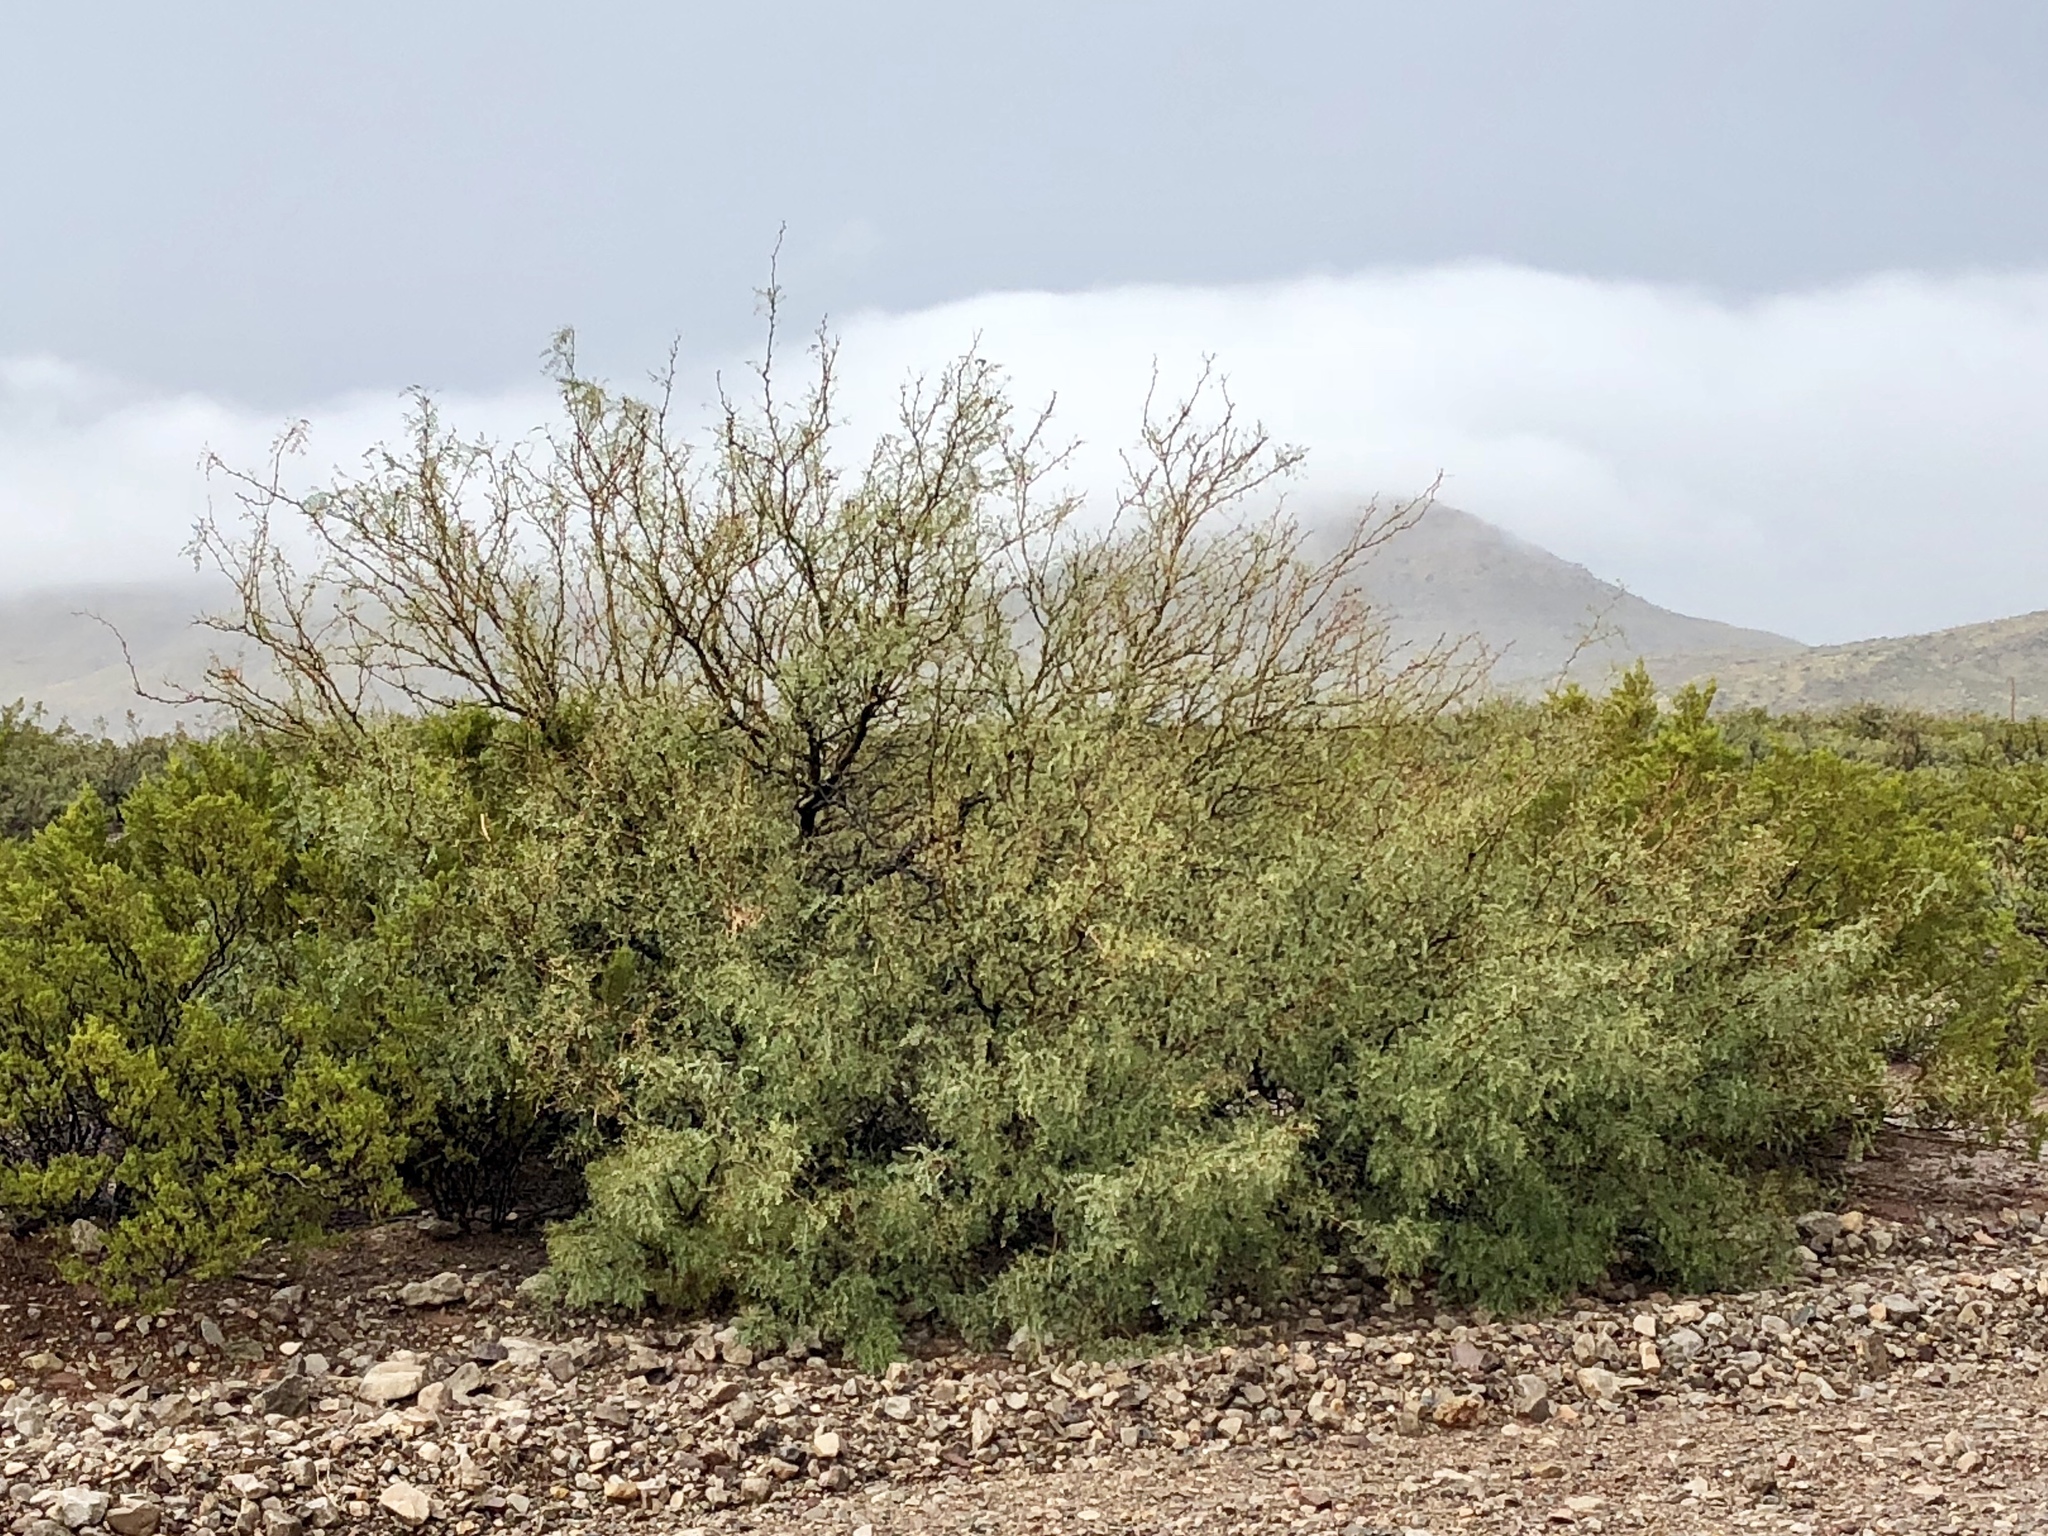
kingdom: Plantae
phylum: Tracheophyta
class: Magnoliopsida
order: Fabales
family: Fabaceae
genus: Prosopis
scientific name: Prosopis glandulosa
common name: Honey mesquite
